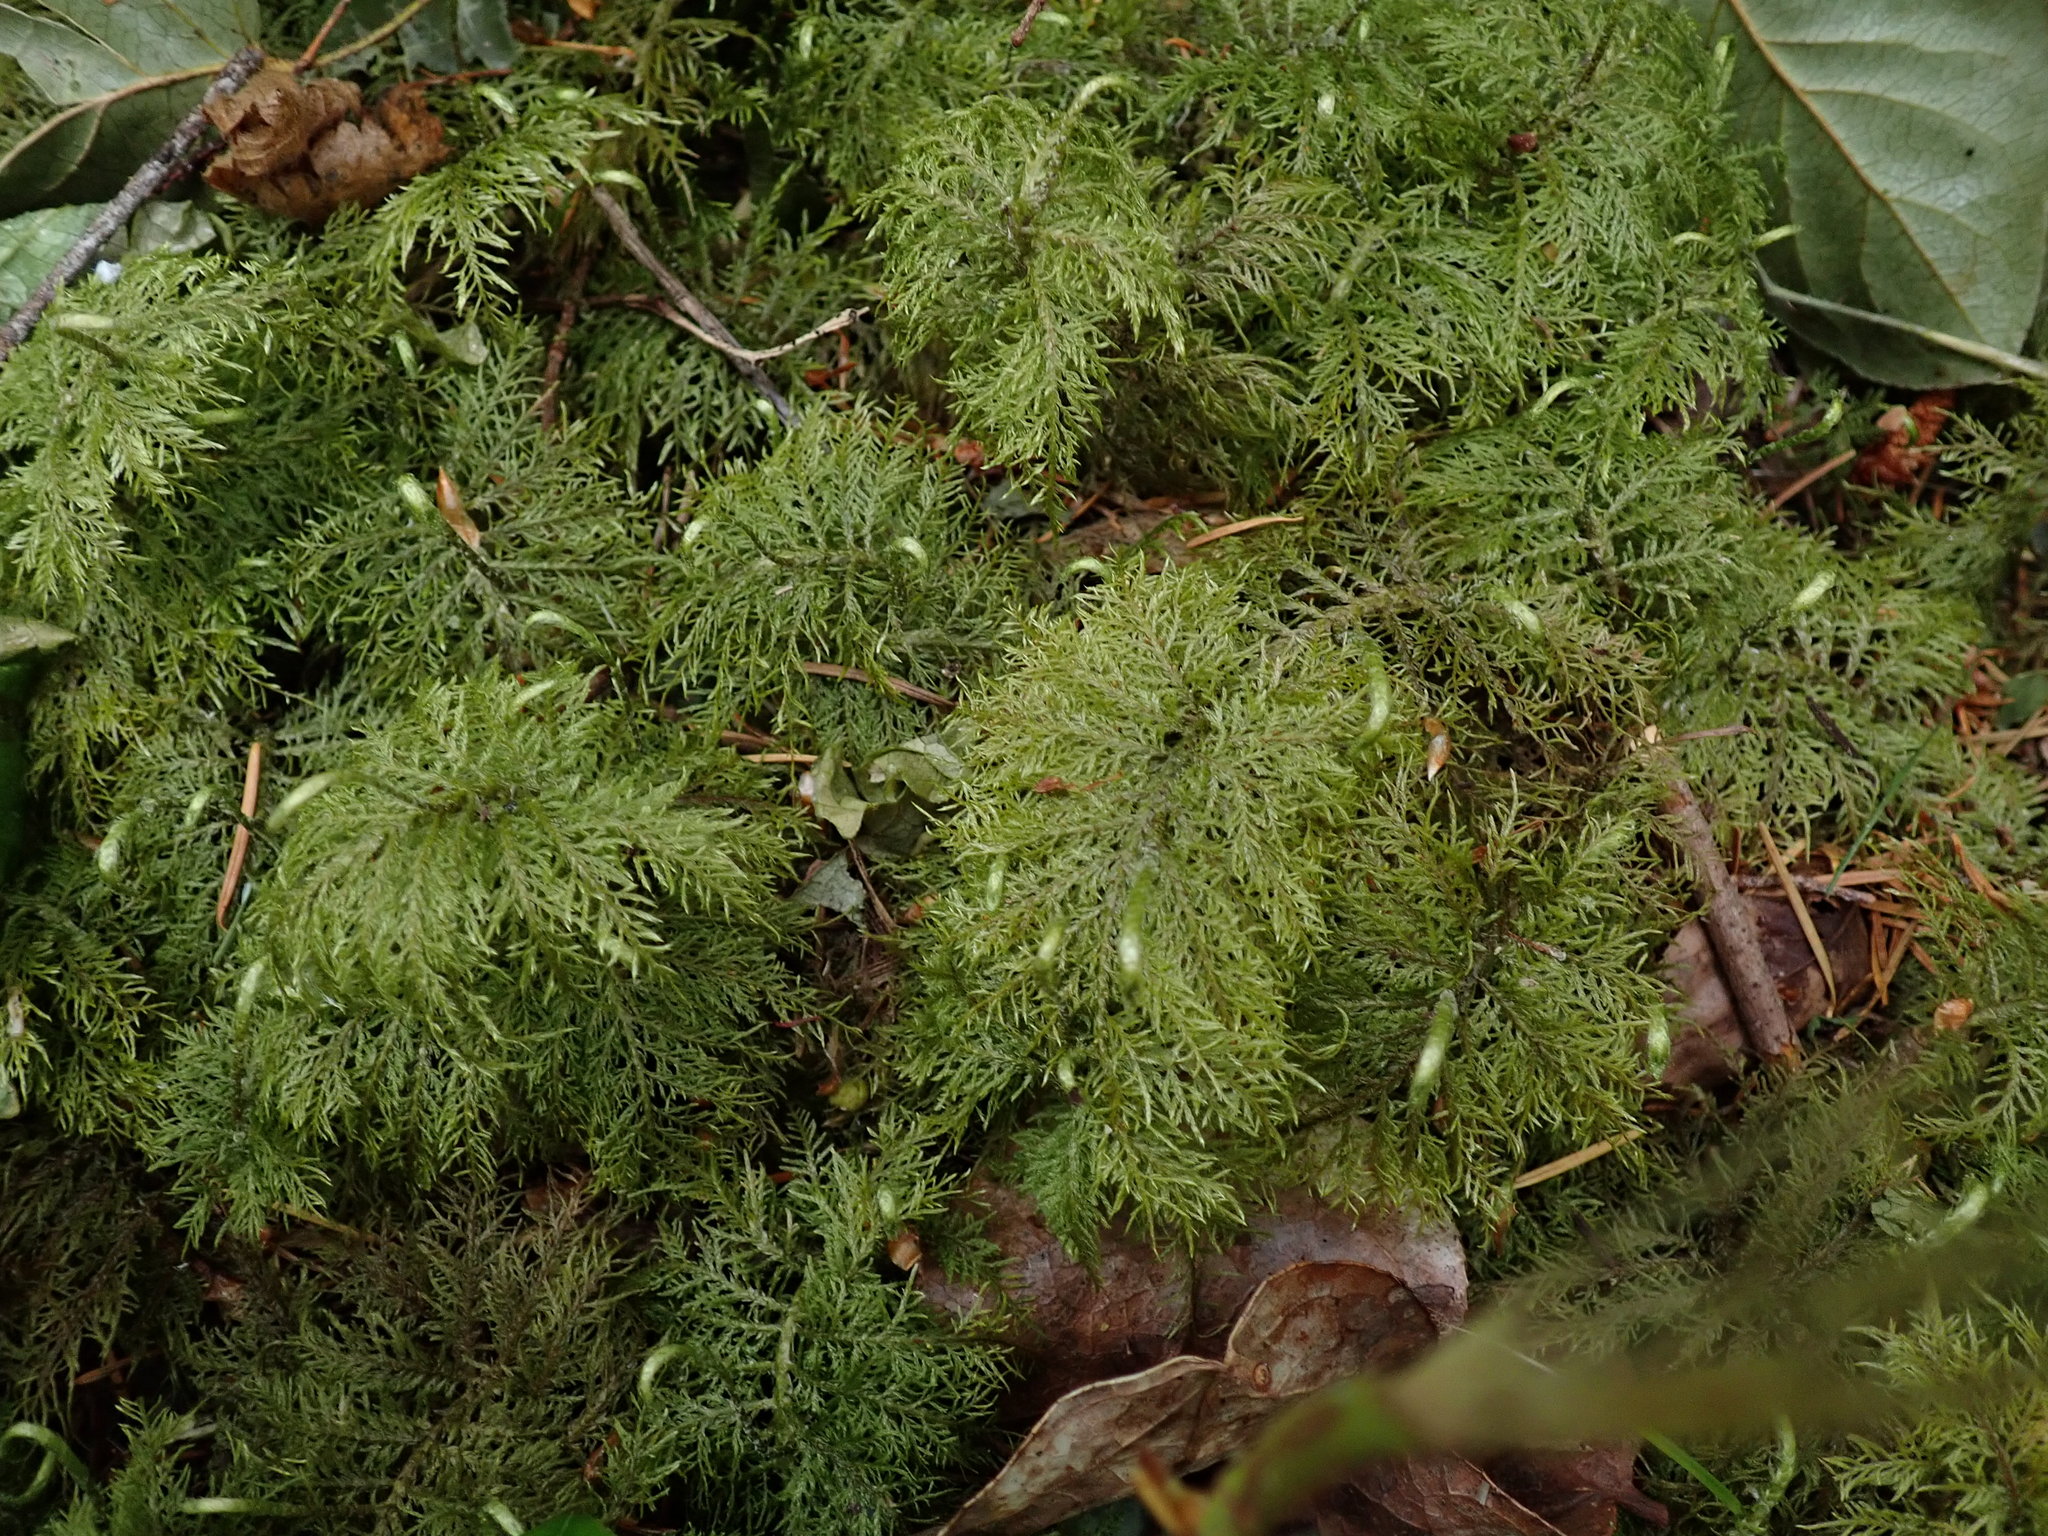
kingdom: Plantae
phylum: Bryophyta
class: Bryopsida
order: Hypnales
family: Hylocomiaceae
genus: Hylocomium
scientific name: Hylocomium splendens
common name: Stairstep moss
